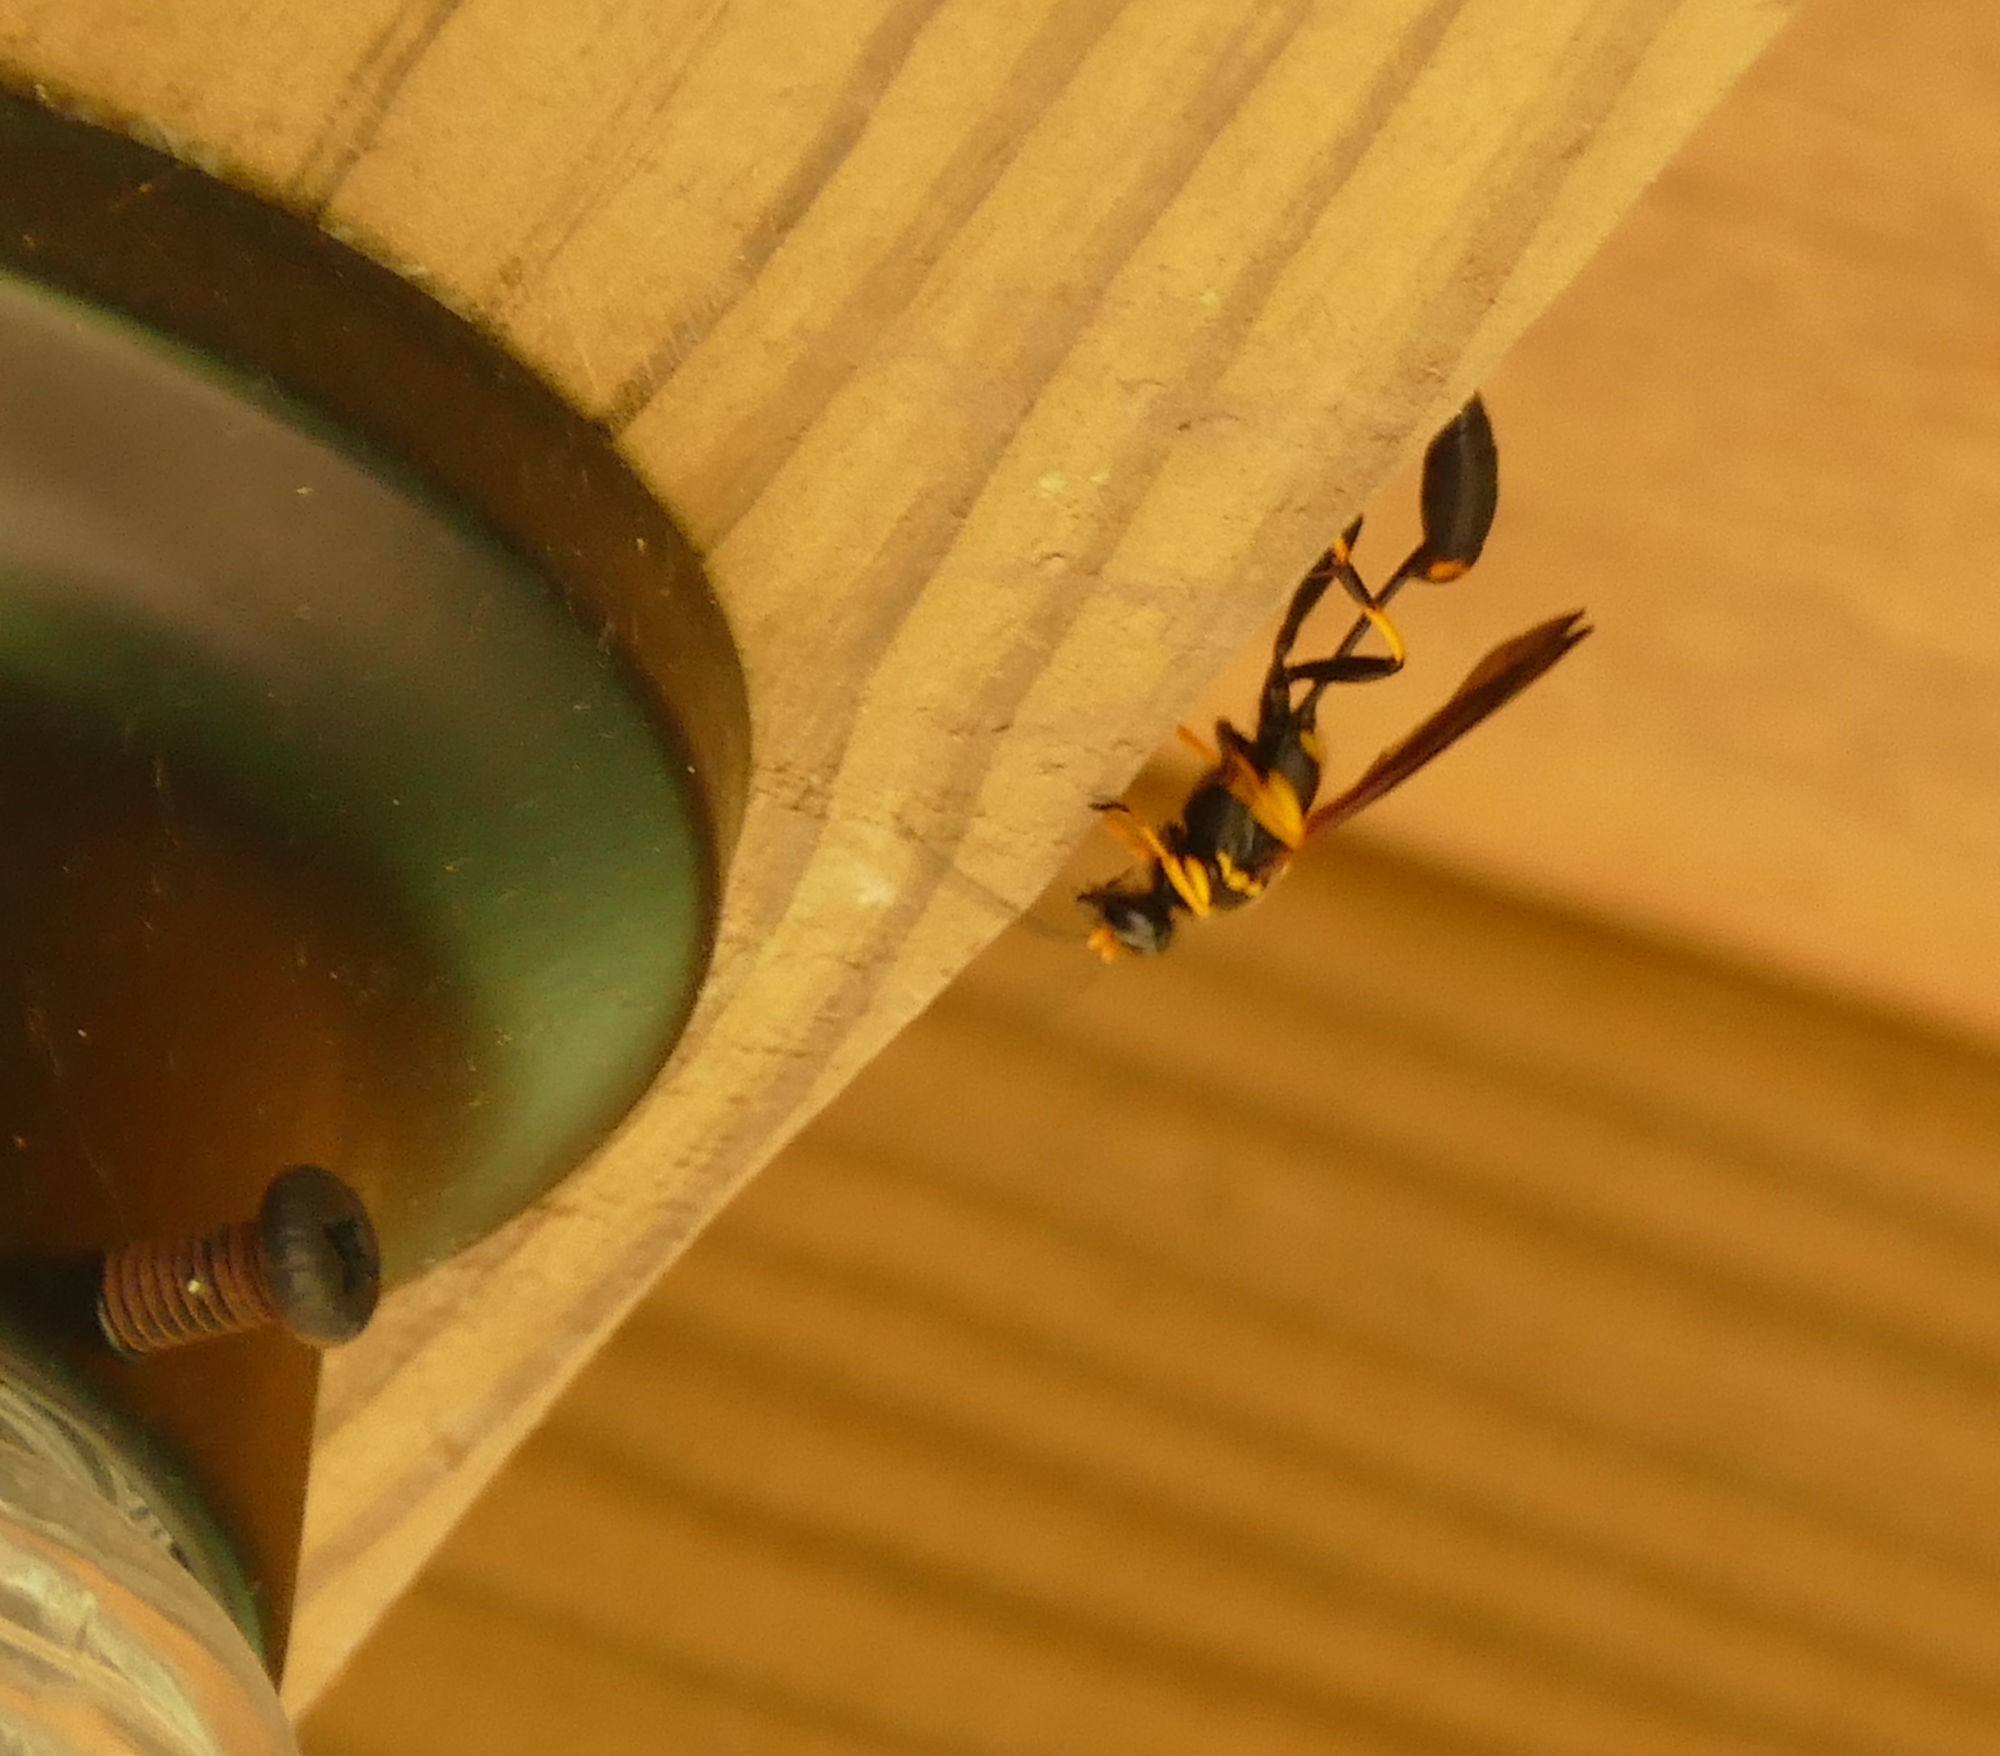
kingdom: Animalia
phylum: Arthropoda
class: Insecta
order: Hymenoptera
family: Sphecidae
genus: Sceliphron
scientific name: Sceliphron caementarium
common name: Mud dauber
